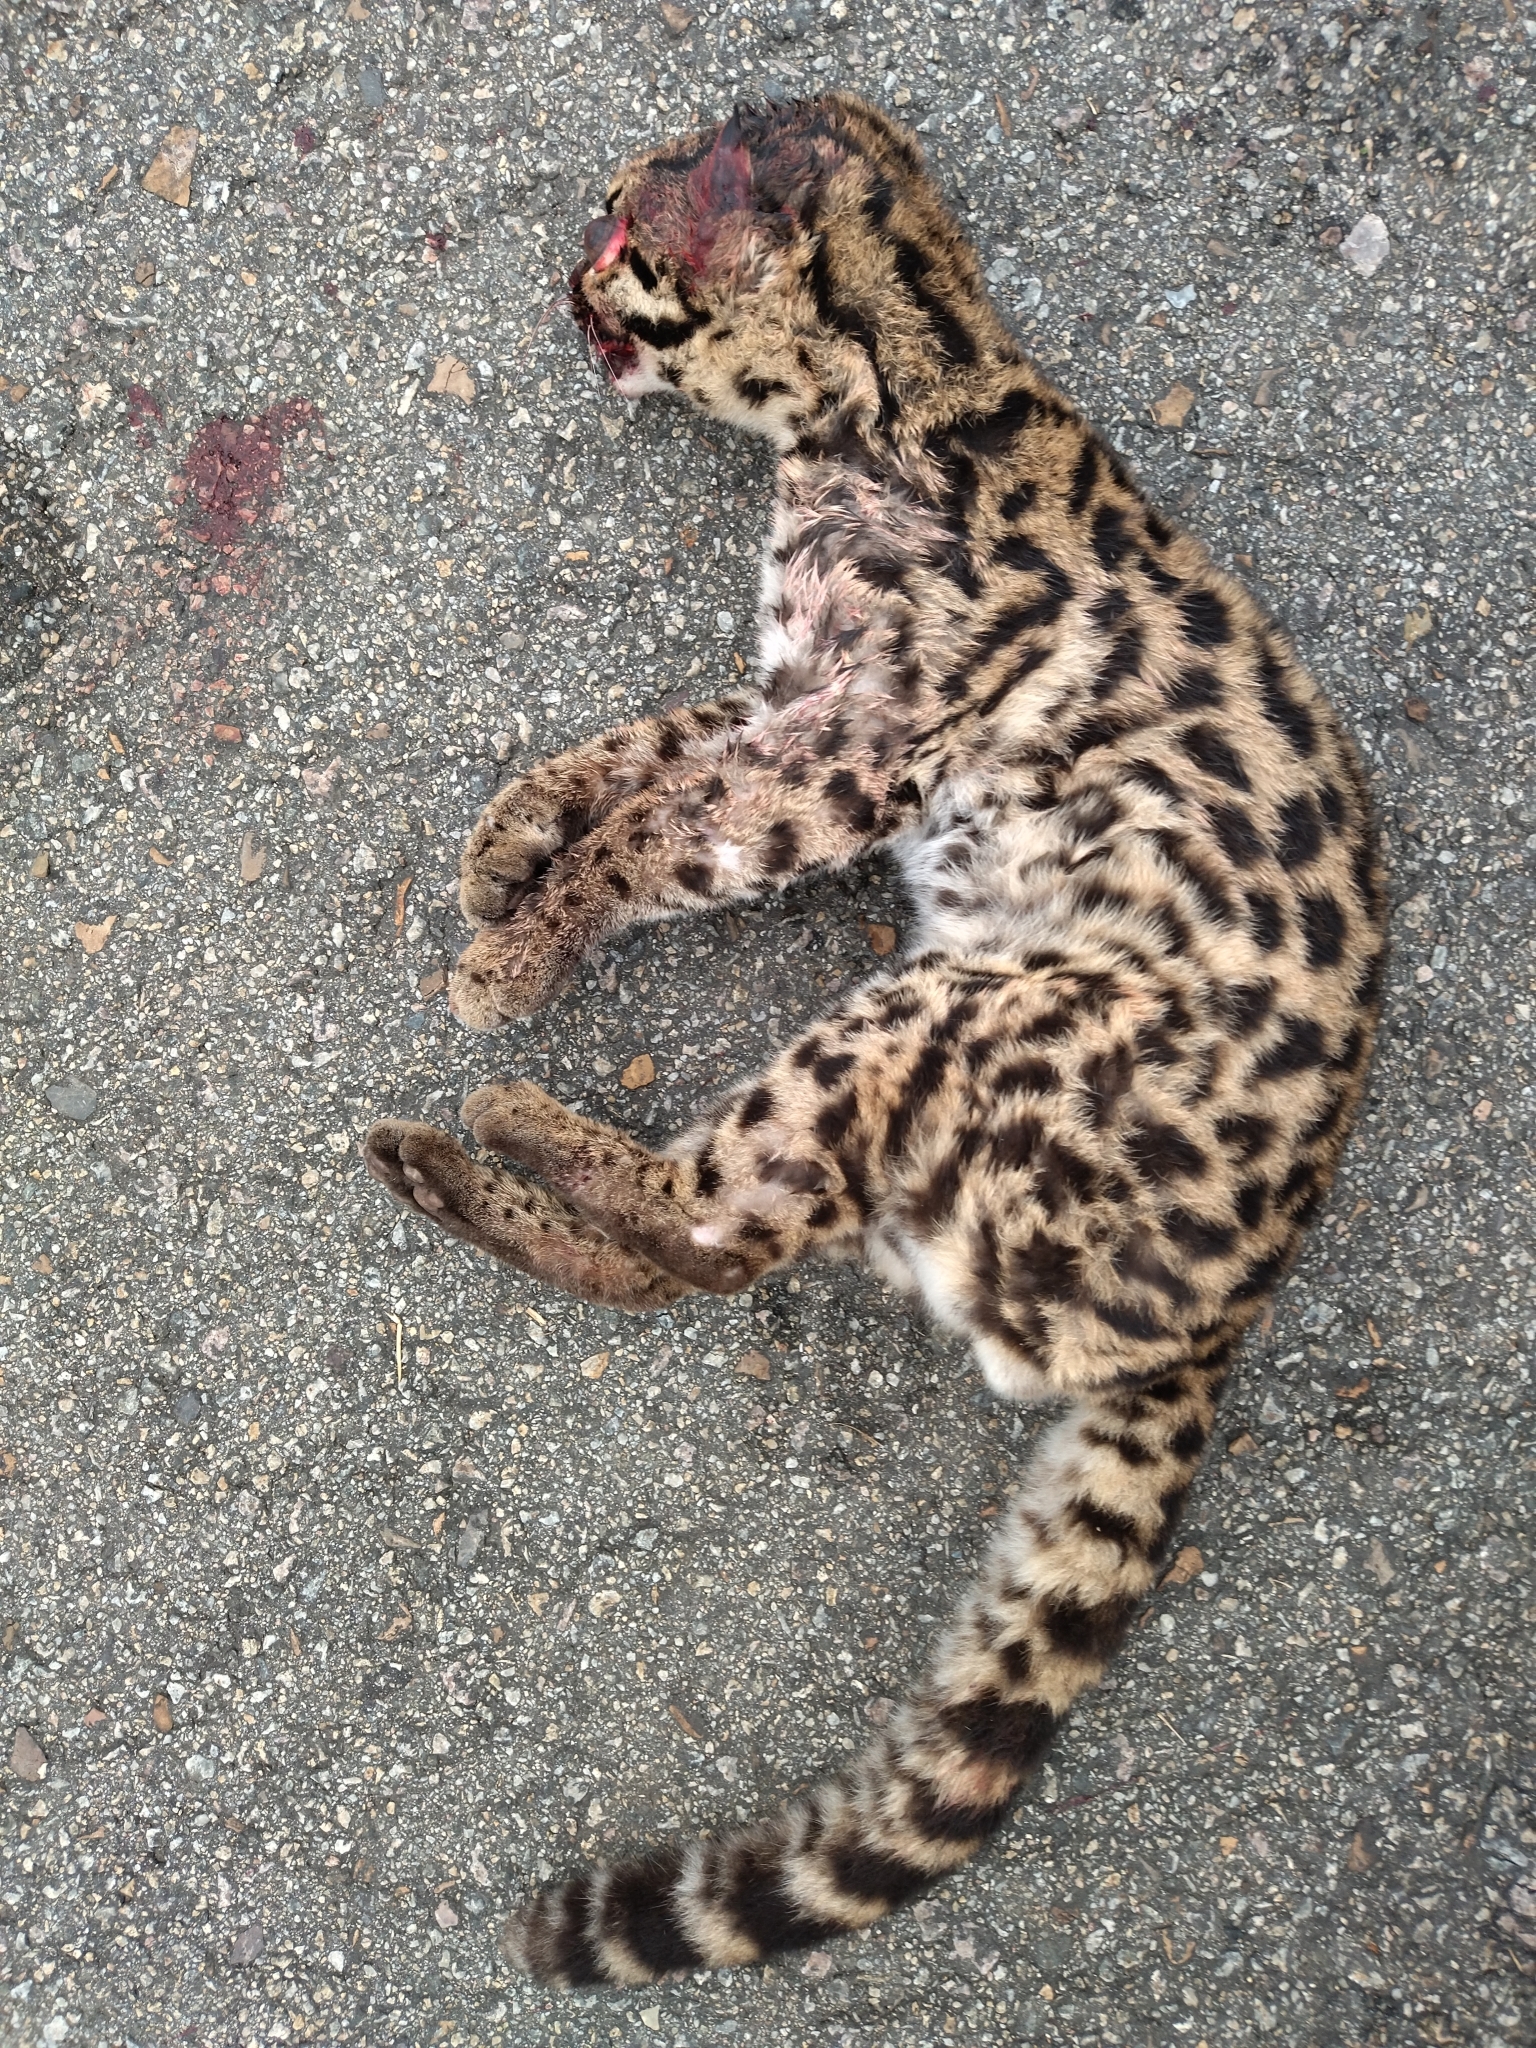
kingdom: Animalia
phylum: Chordata
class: Mammalia
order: Carnivora
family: Felidae
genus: Leopardus
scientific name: Leopardus wiedii
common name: Margay
